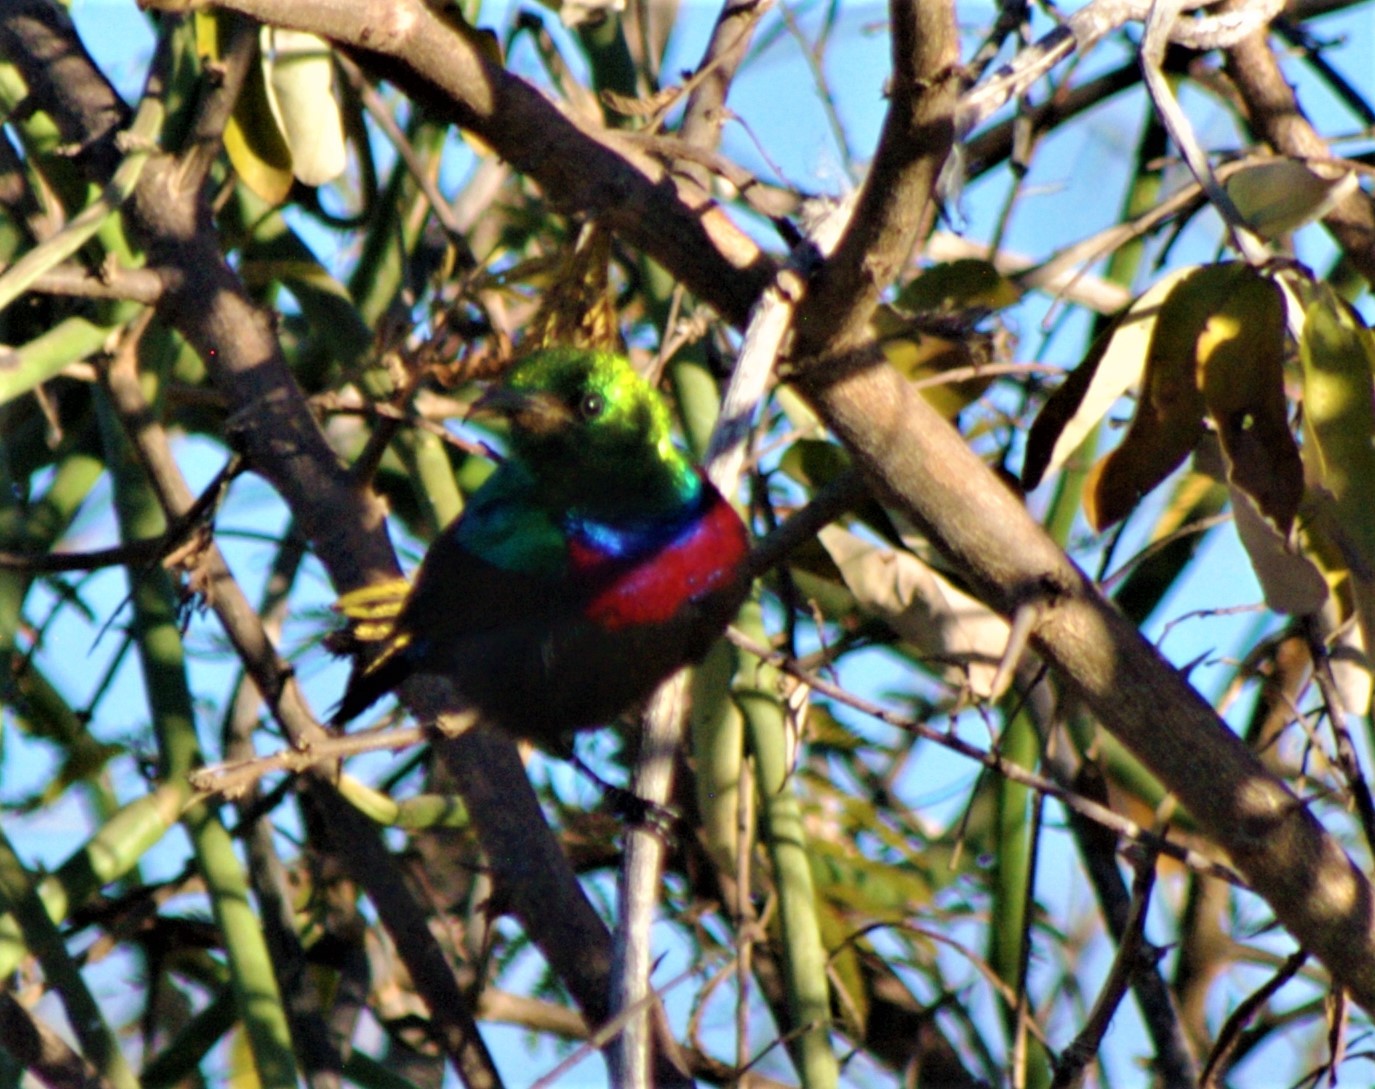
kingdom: Animalia
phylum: Chordata
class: Aves
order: Passeriformes
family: Nectariniidae
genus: Cinnyris
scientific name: Cinnyris mariquensis
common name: Marico sunbird
